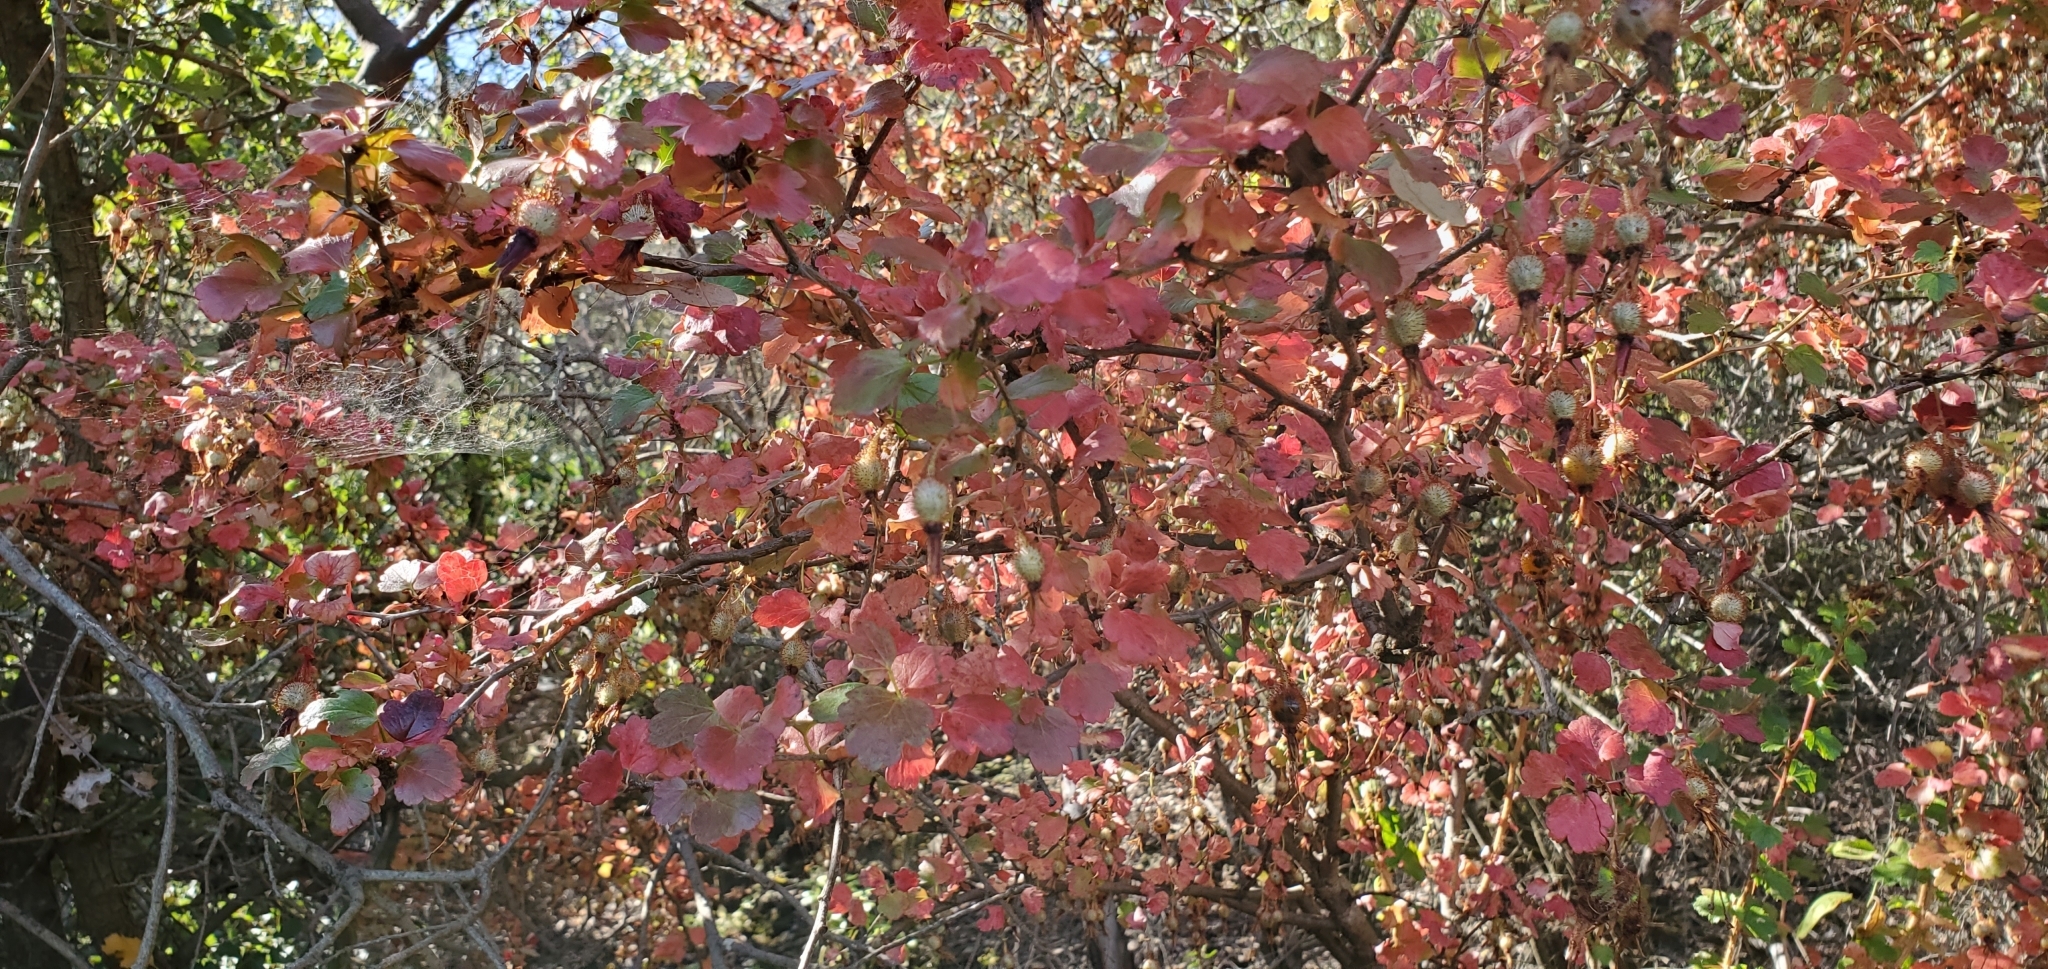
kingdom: Plantae
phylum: Tracheophyta
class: Magnoliopsida
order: Saxifragales
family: Grossulariaceae
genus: Ribes
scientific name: Ribes speciosum
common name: Fuchsia-flower gooseberry
